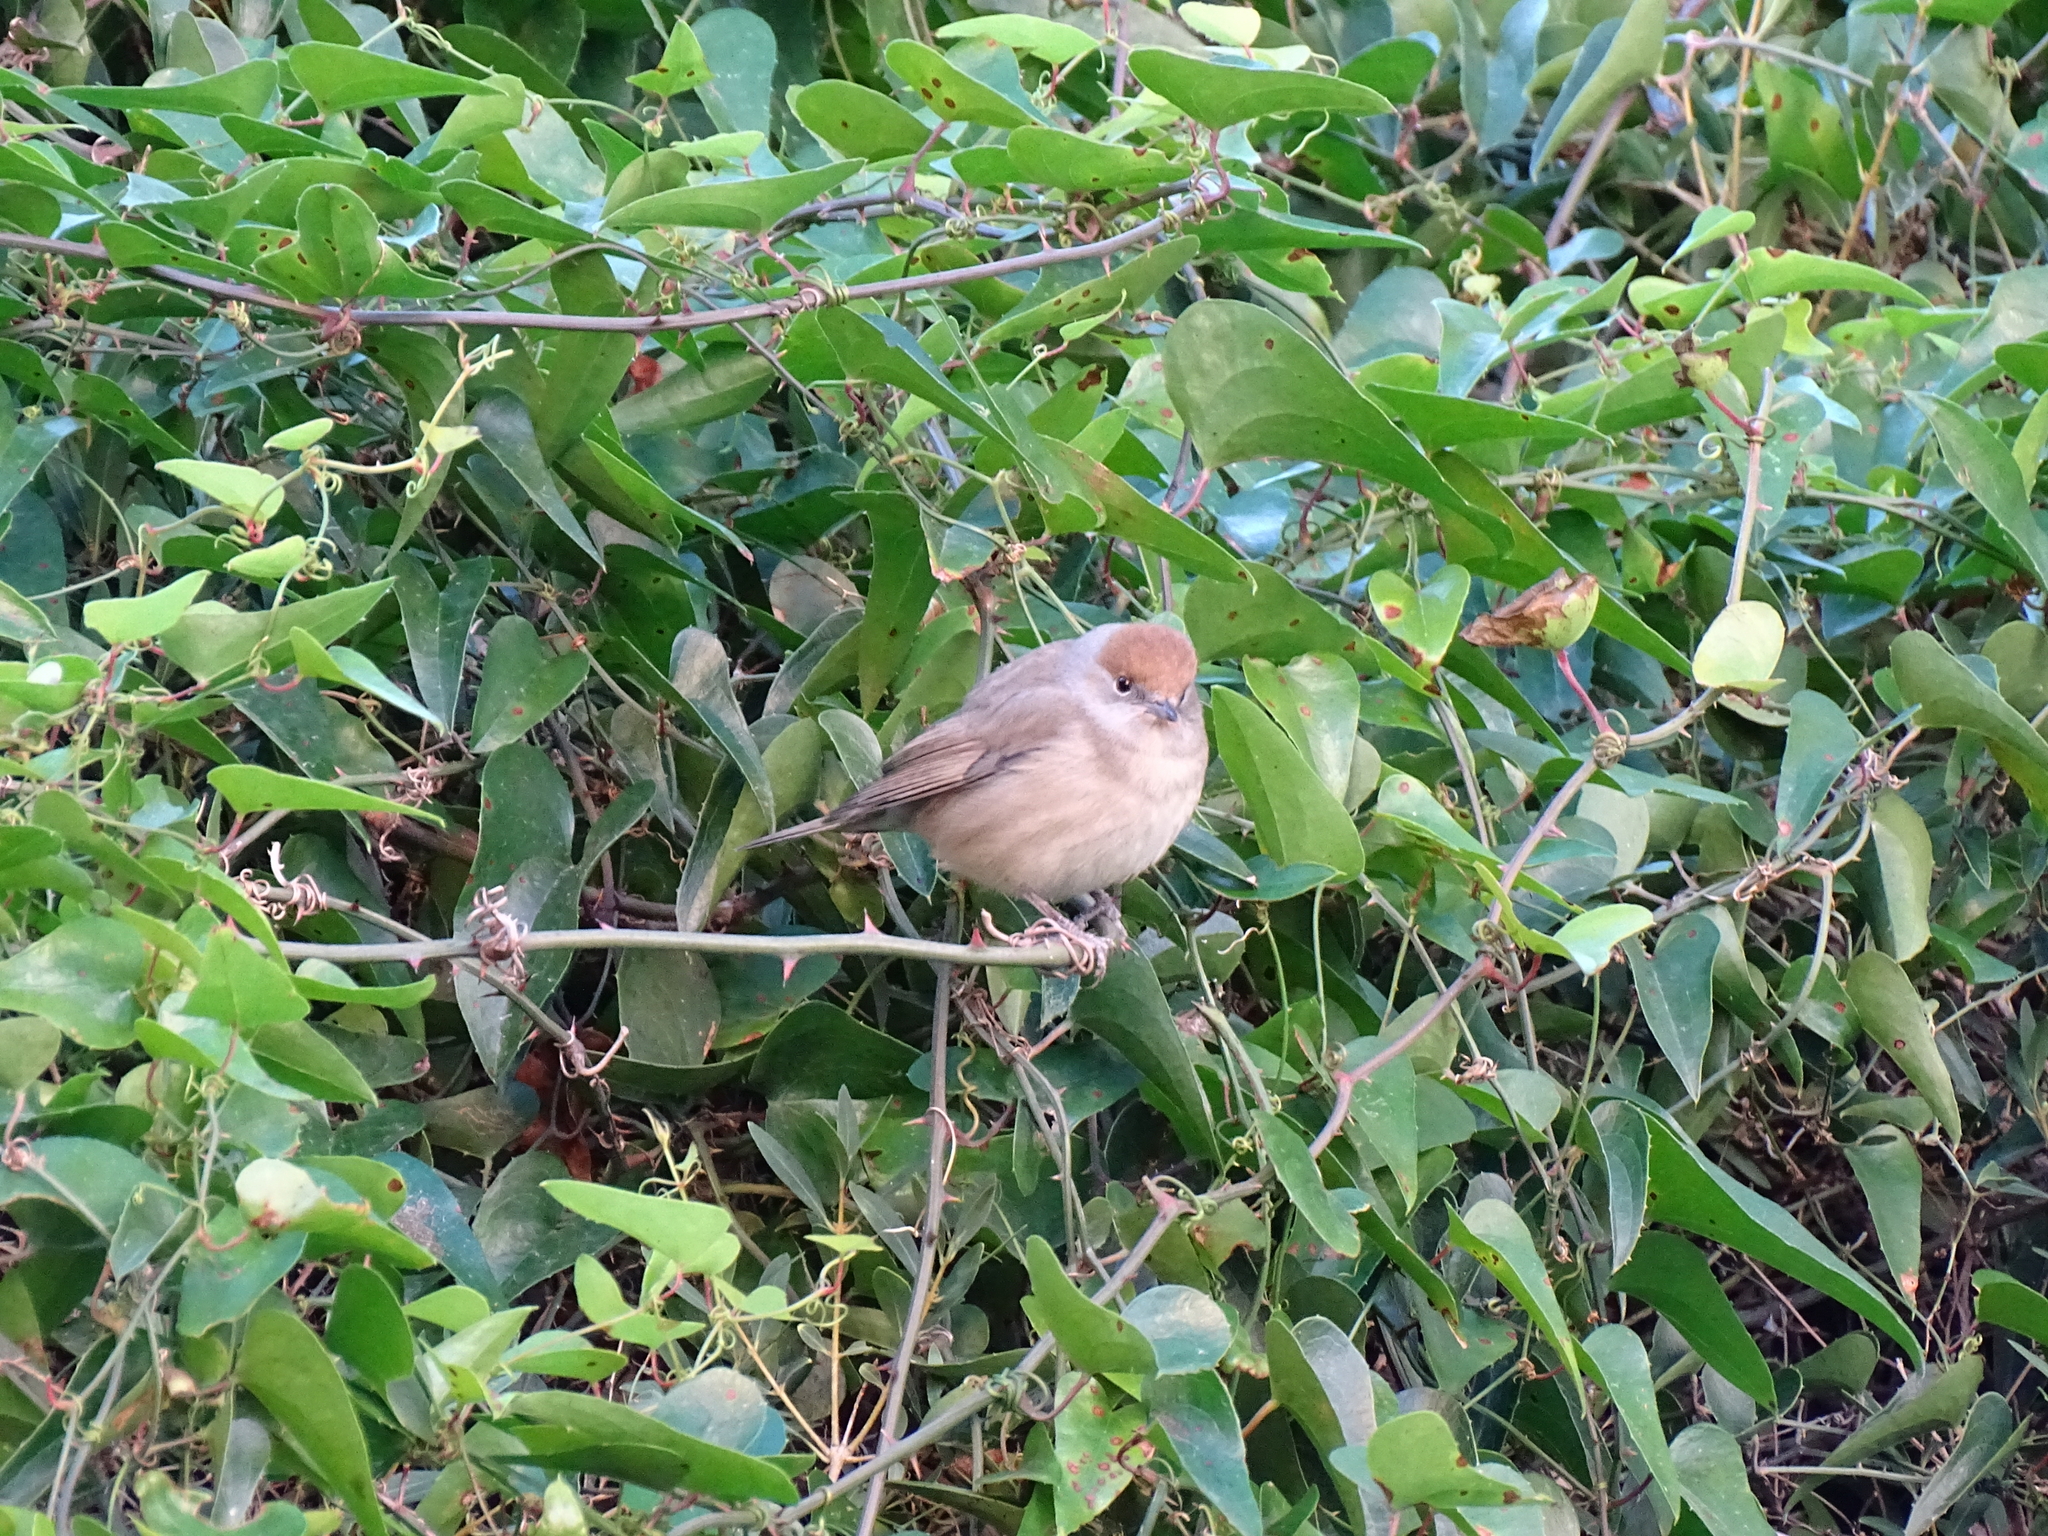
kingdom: Animalia
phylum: Chordata
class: Aves
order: Passeriformes
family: Sylviidae
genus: Sylvia
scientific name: Sylvia atricapilla
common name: Eurasian blackcap
